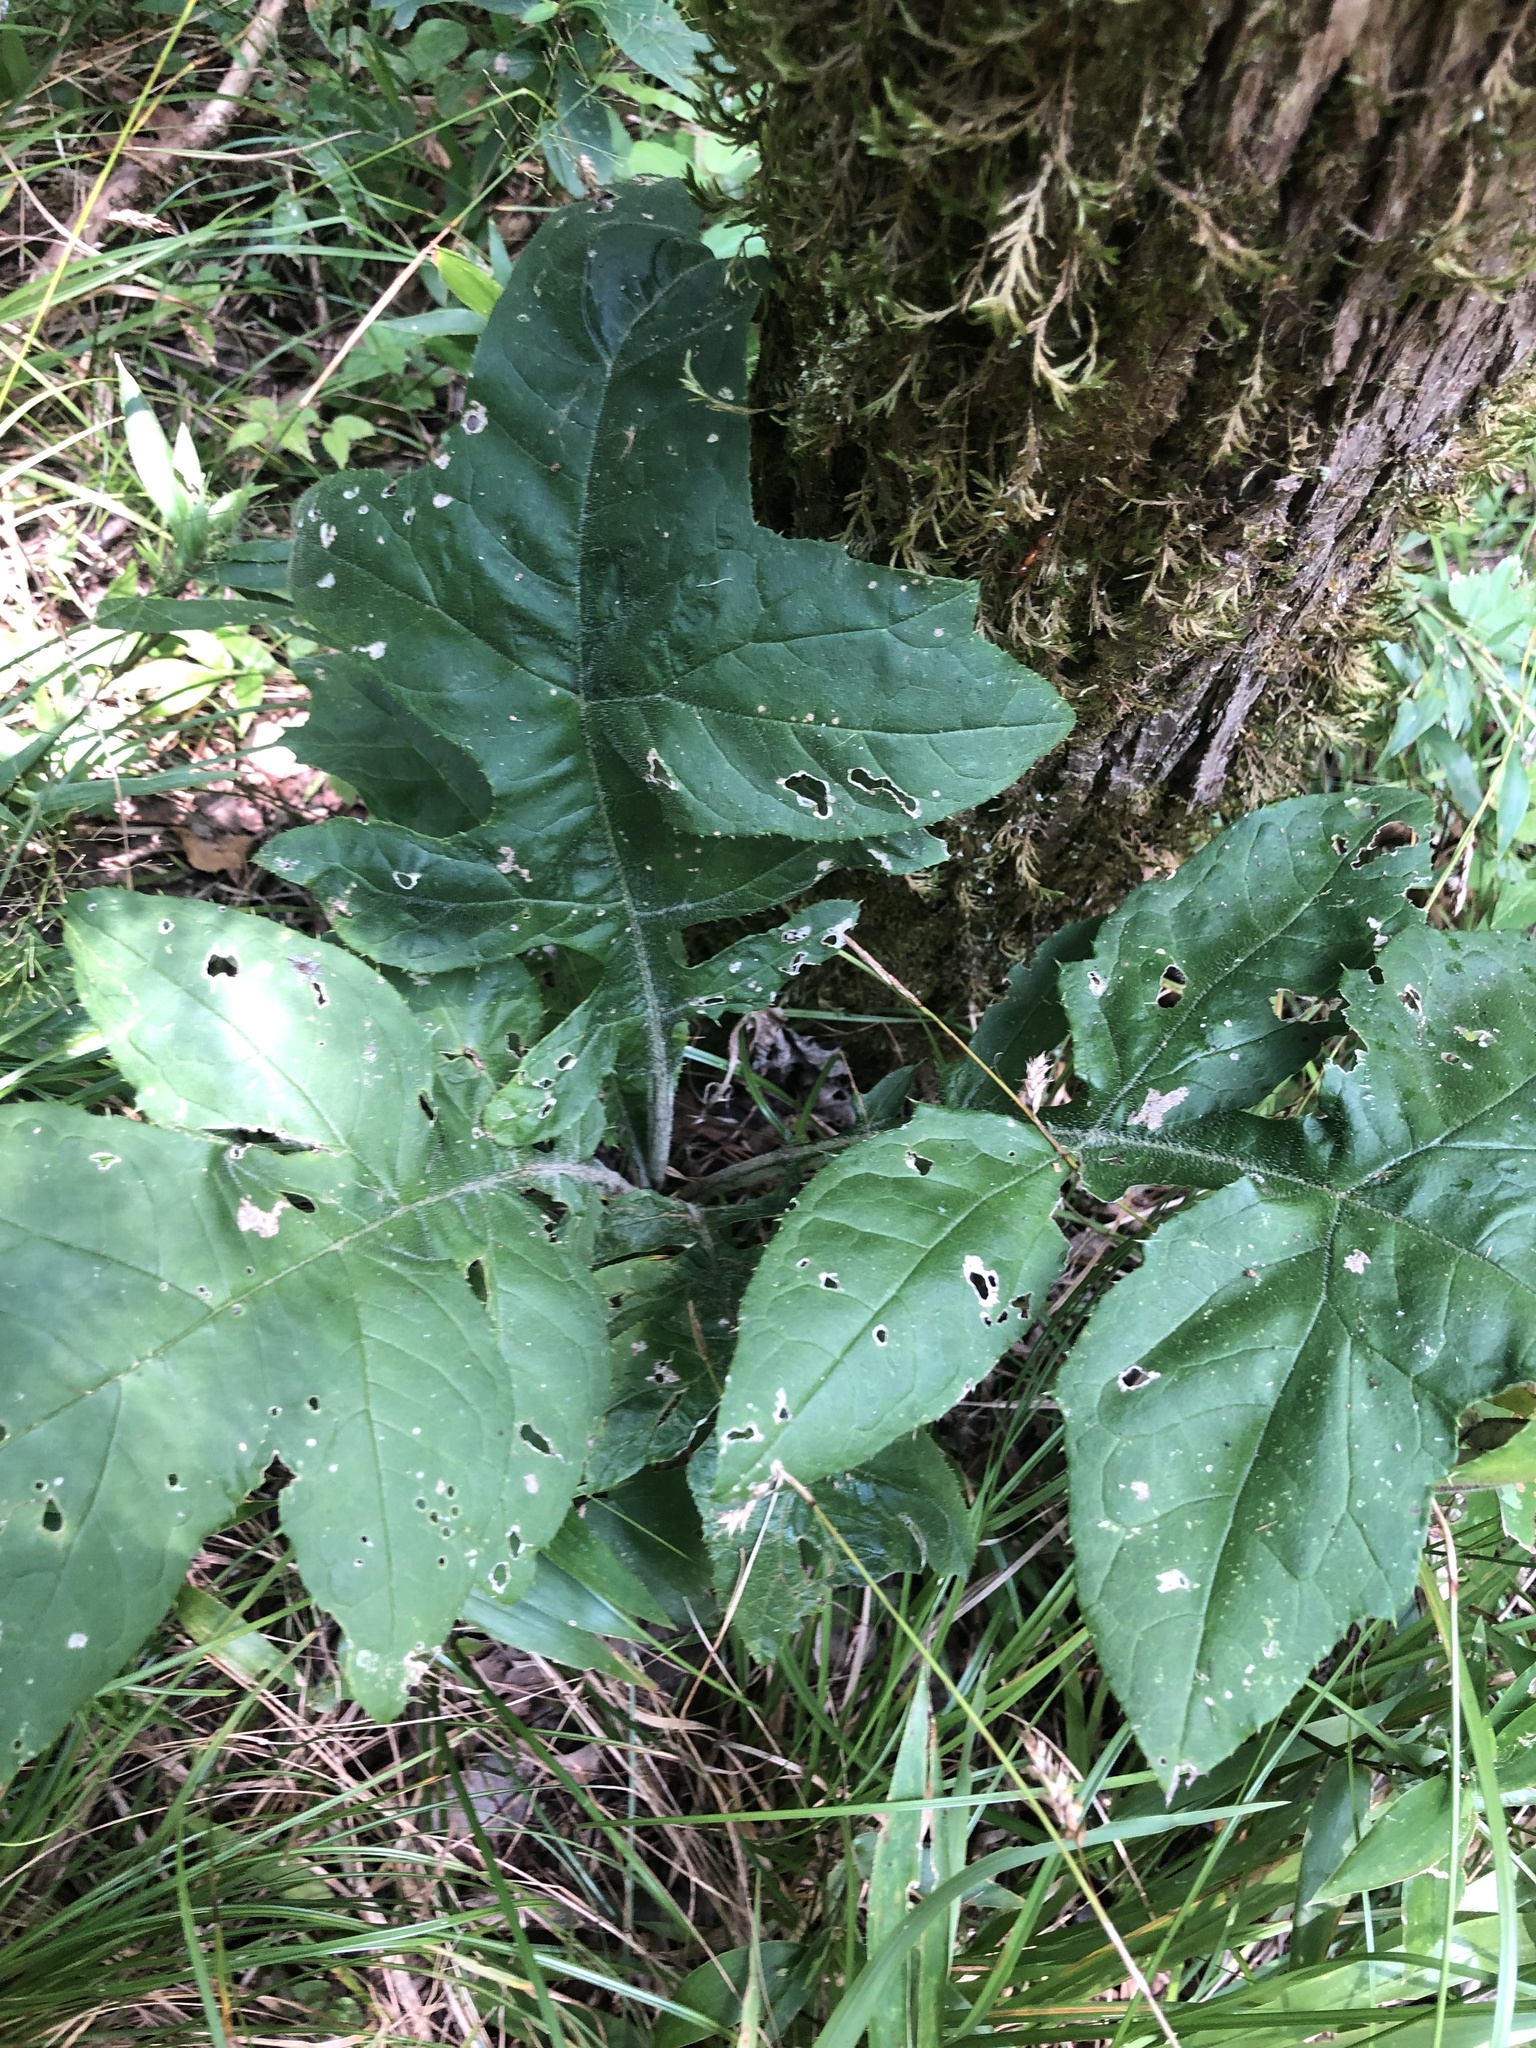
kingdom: Plantae
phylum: Tracheophyta
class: Magnoliopsida
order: Asterales
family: Asteraceae
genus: Cirsium
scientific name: Cirsium altissimum
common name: Roadside thistle
